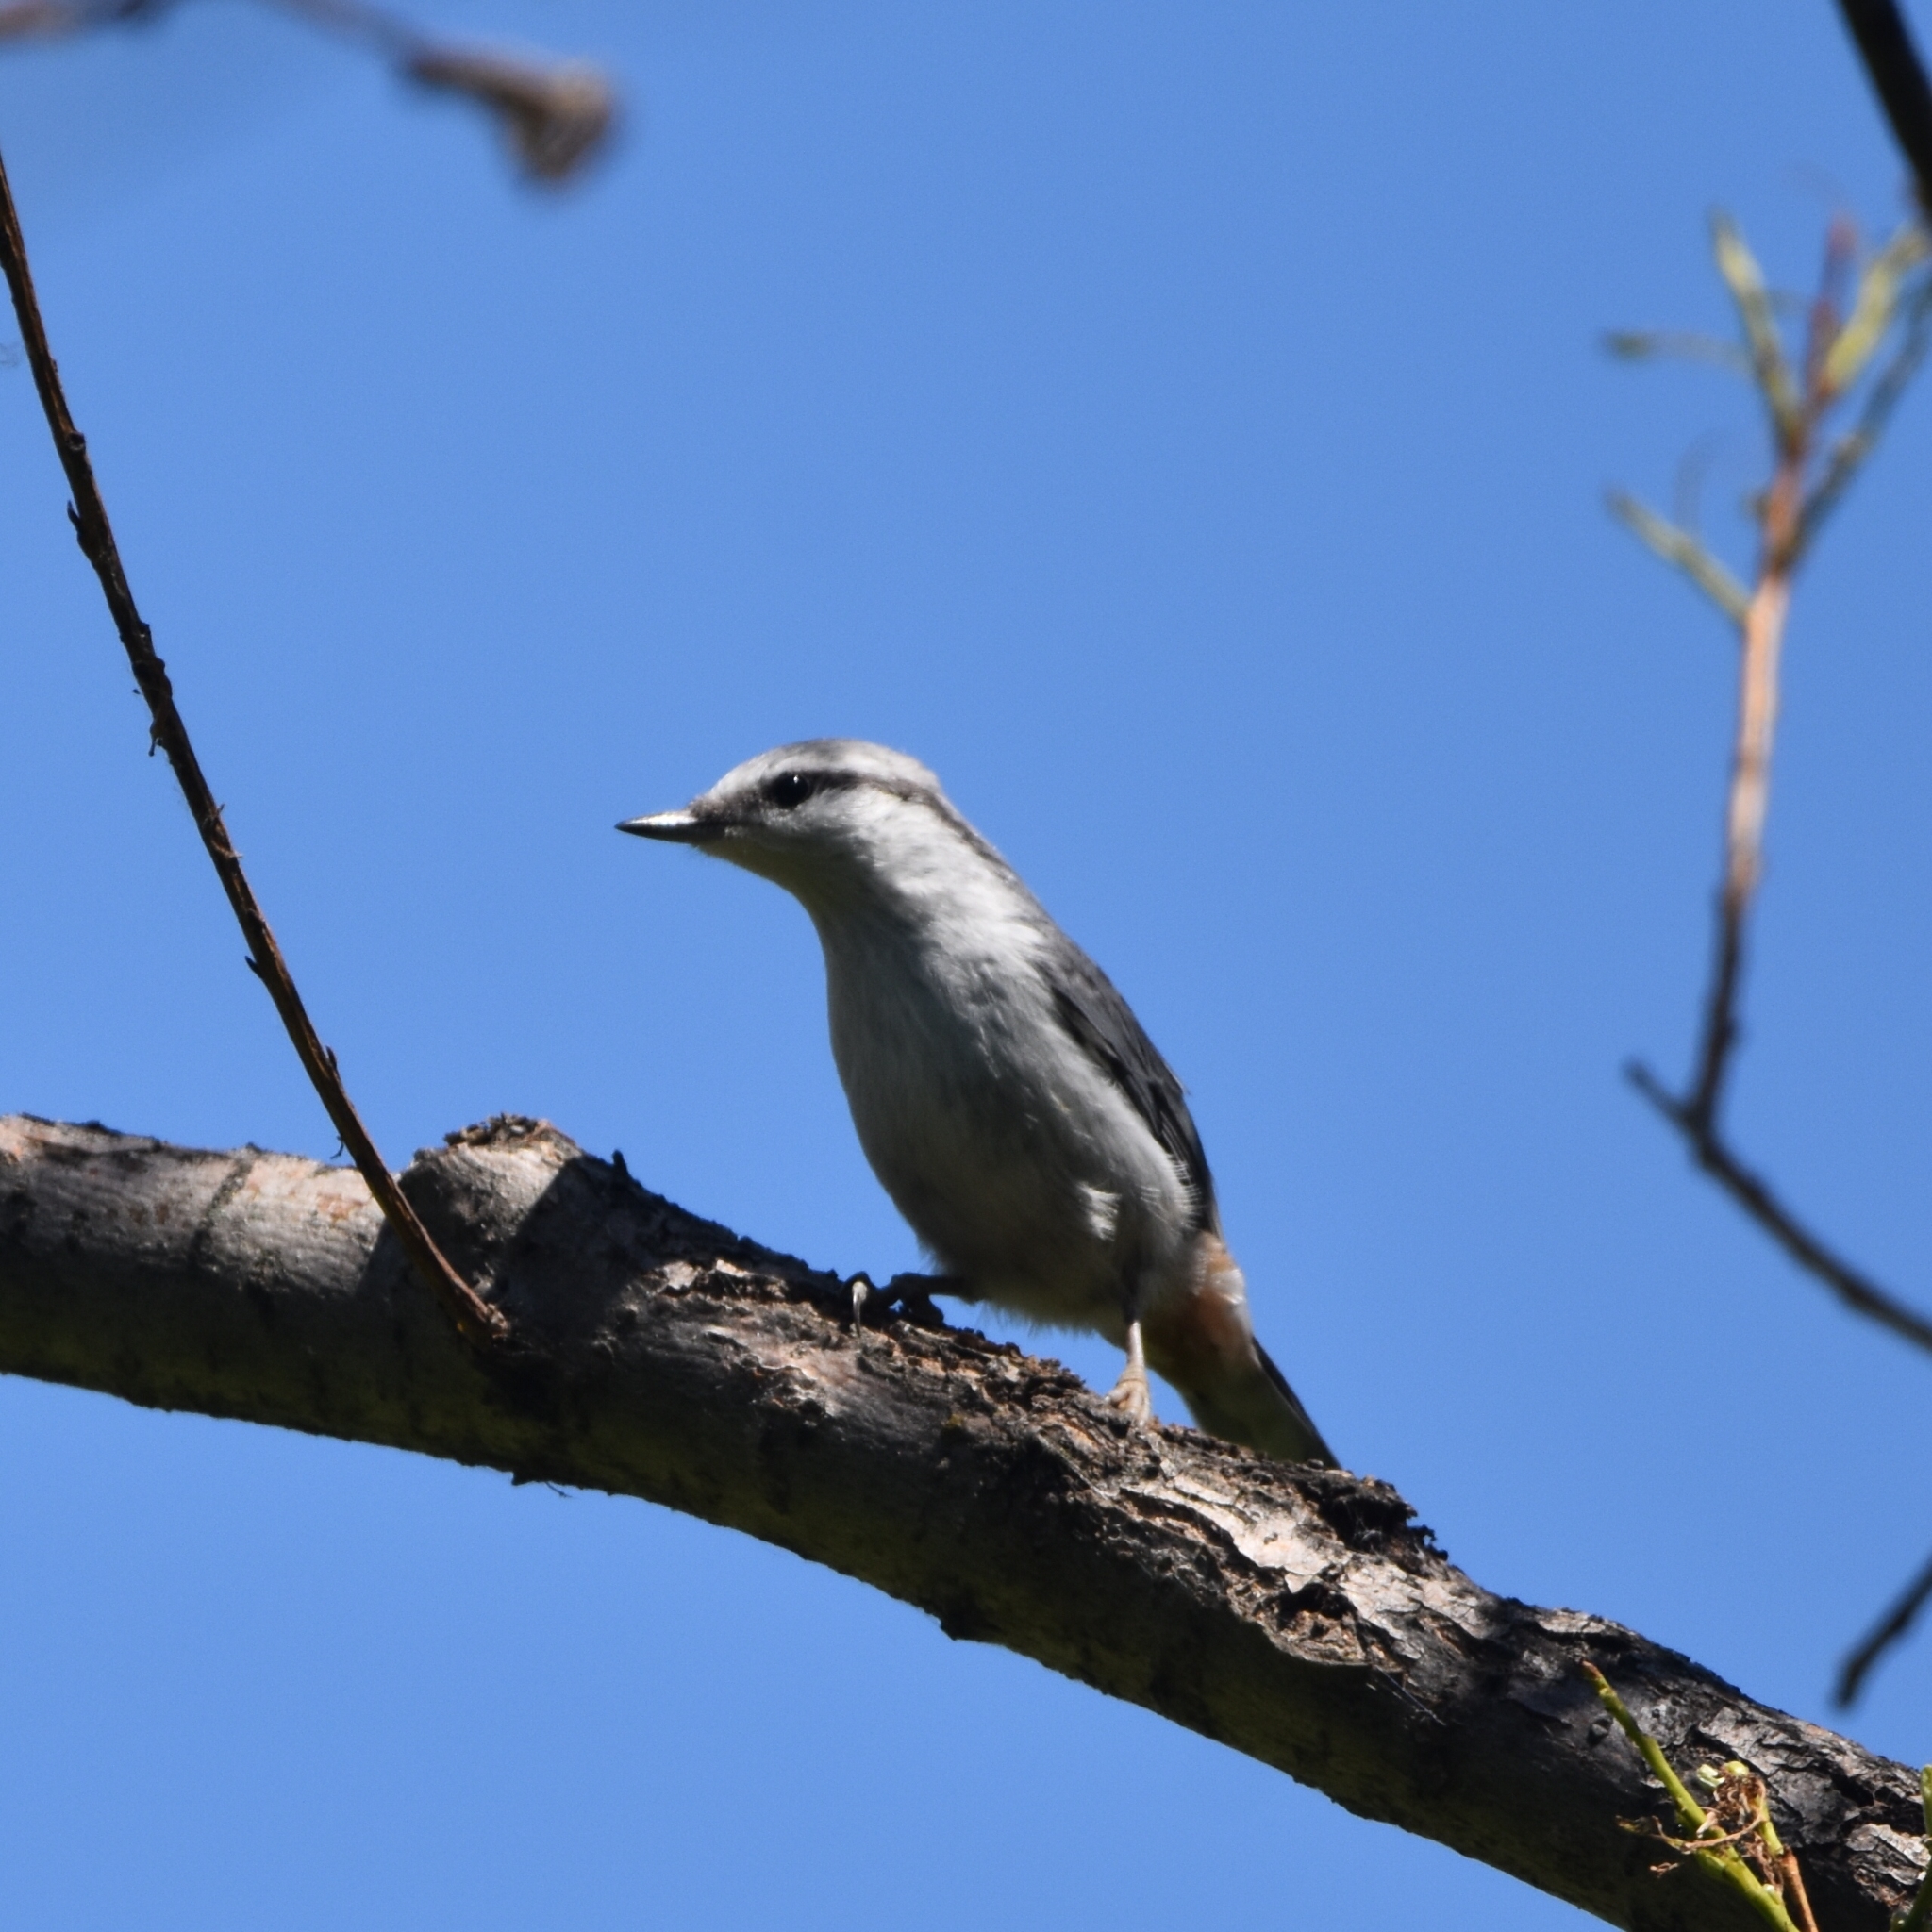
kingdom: Animalia
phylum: Chordata
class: Aves
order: Passeriformes
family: Sittidae
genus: Sitta
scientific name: Sitta europaea
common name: Eurasian nuthatch
